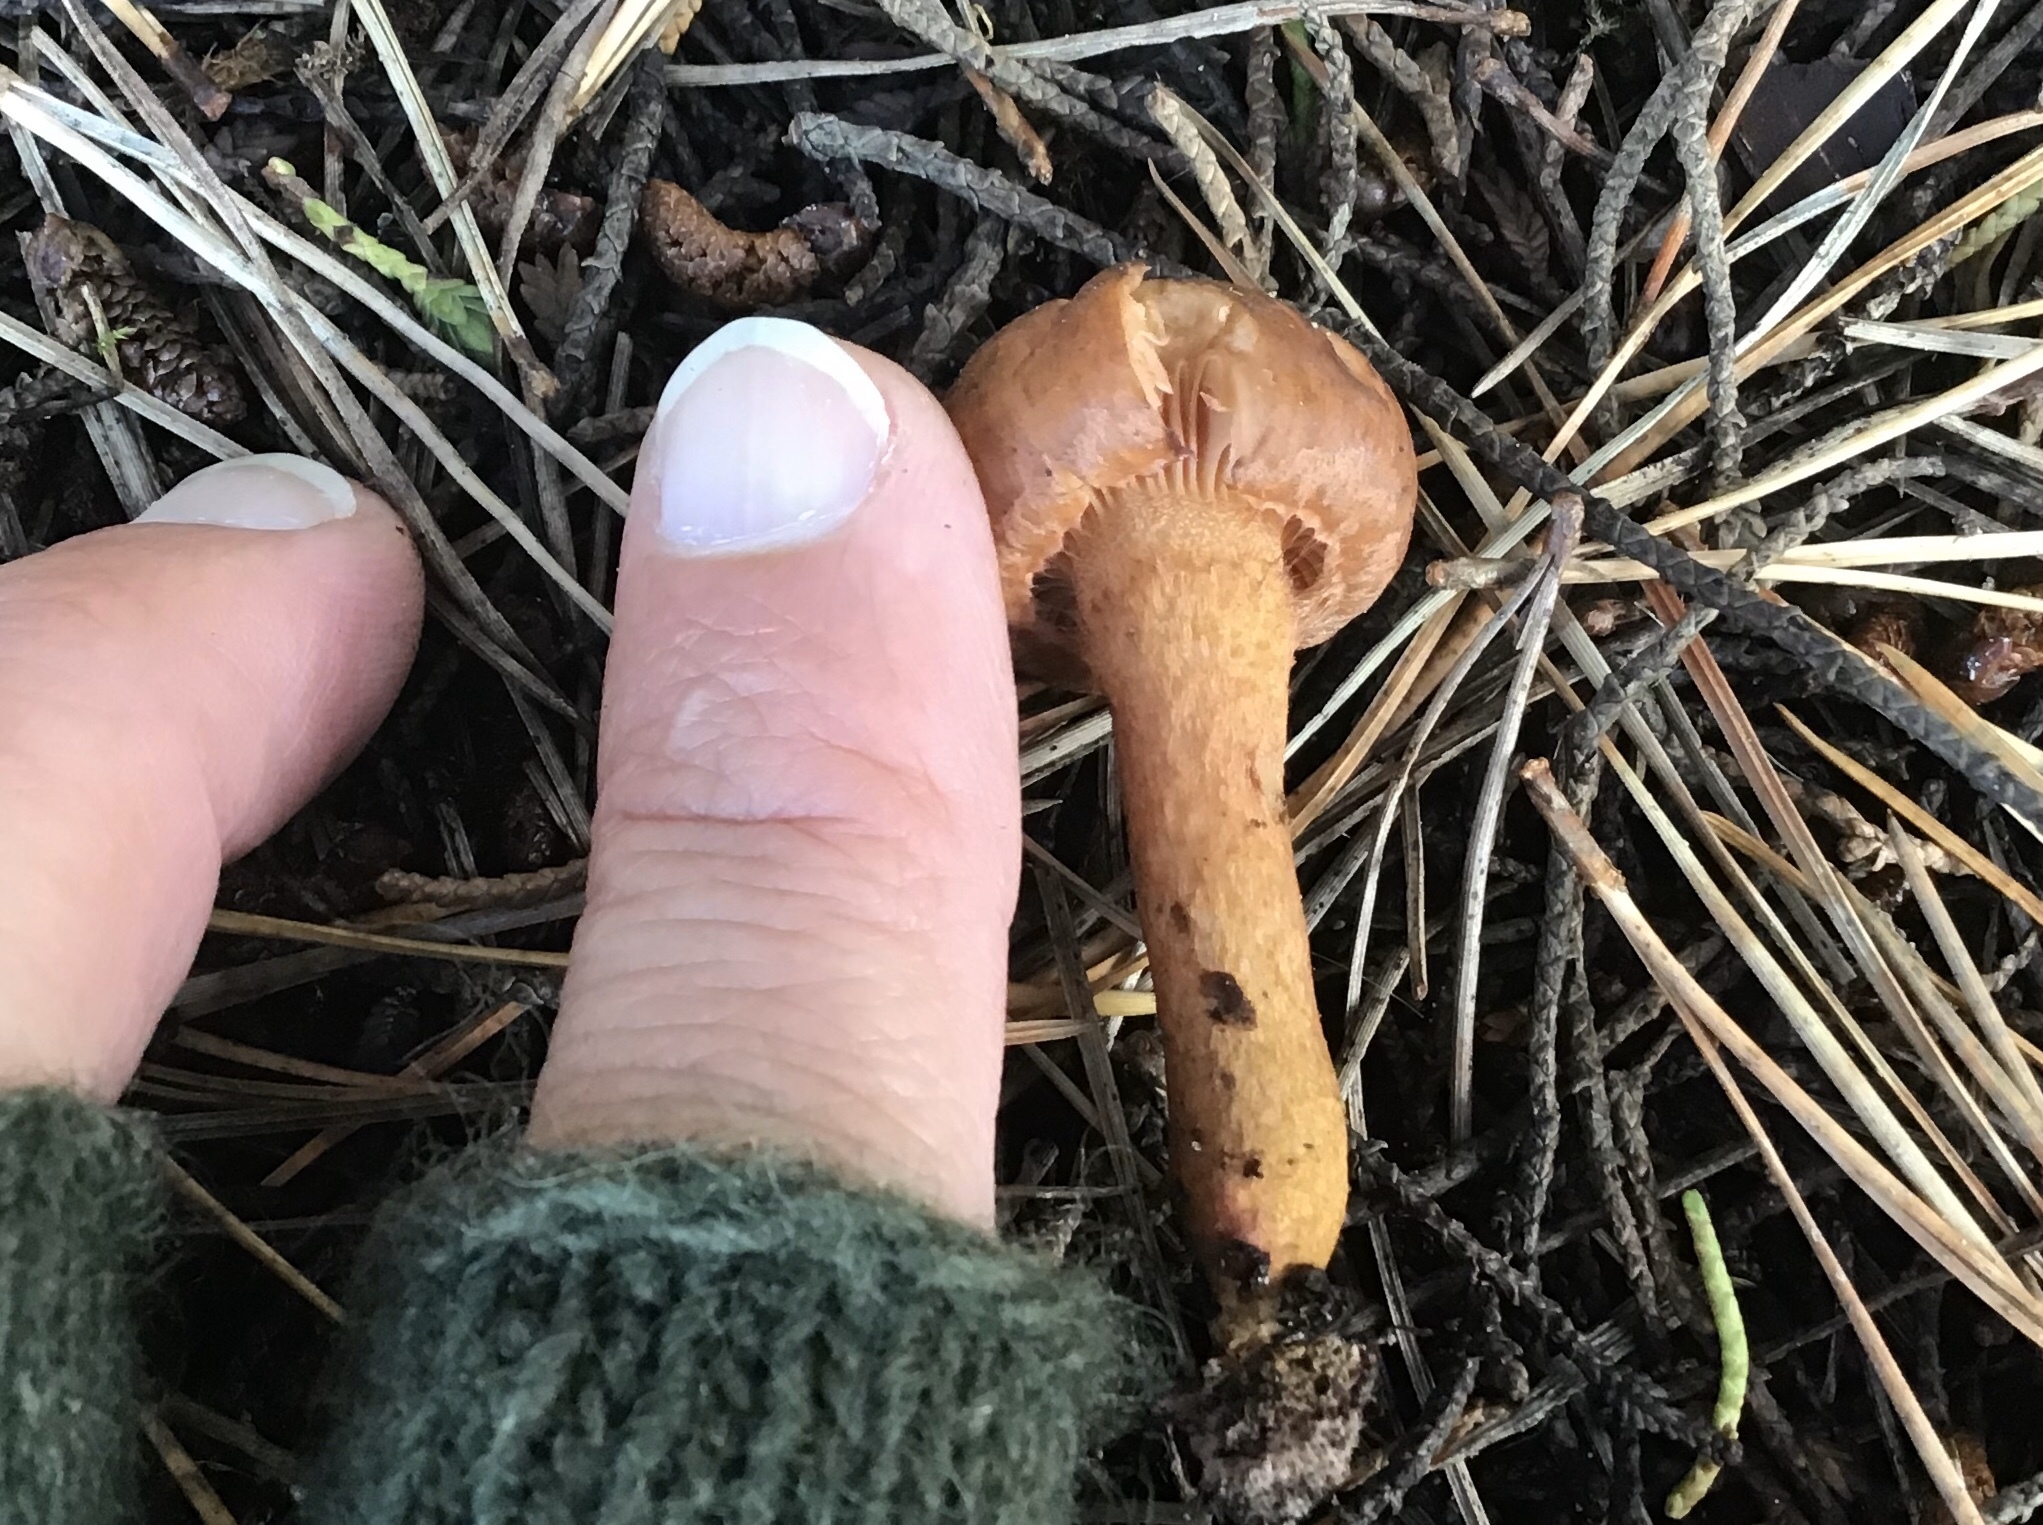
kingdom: Fungi
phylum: Basidiomycota
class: Agaricomycetes
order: Boletales
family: Gomphidiaceae
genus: Chroogomphus
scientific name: Chroogomphus vinicolor
